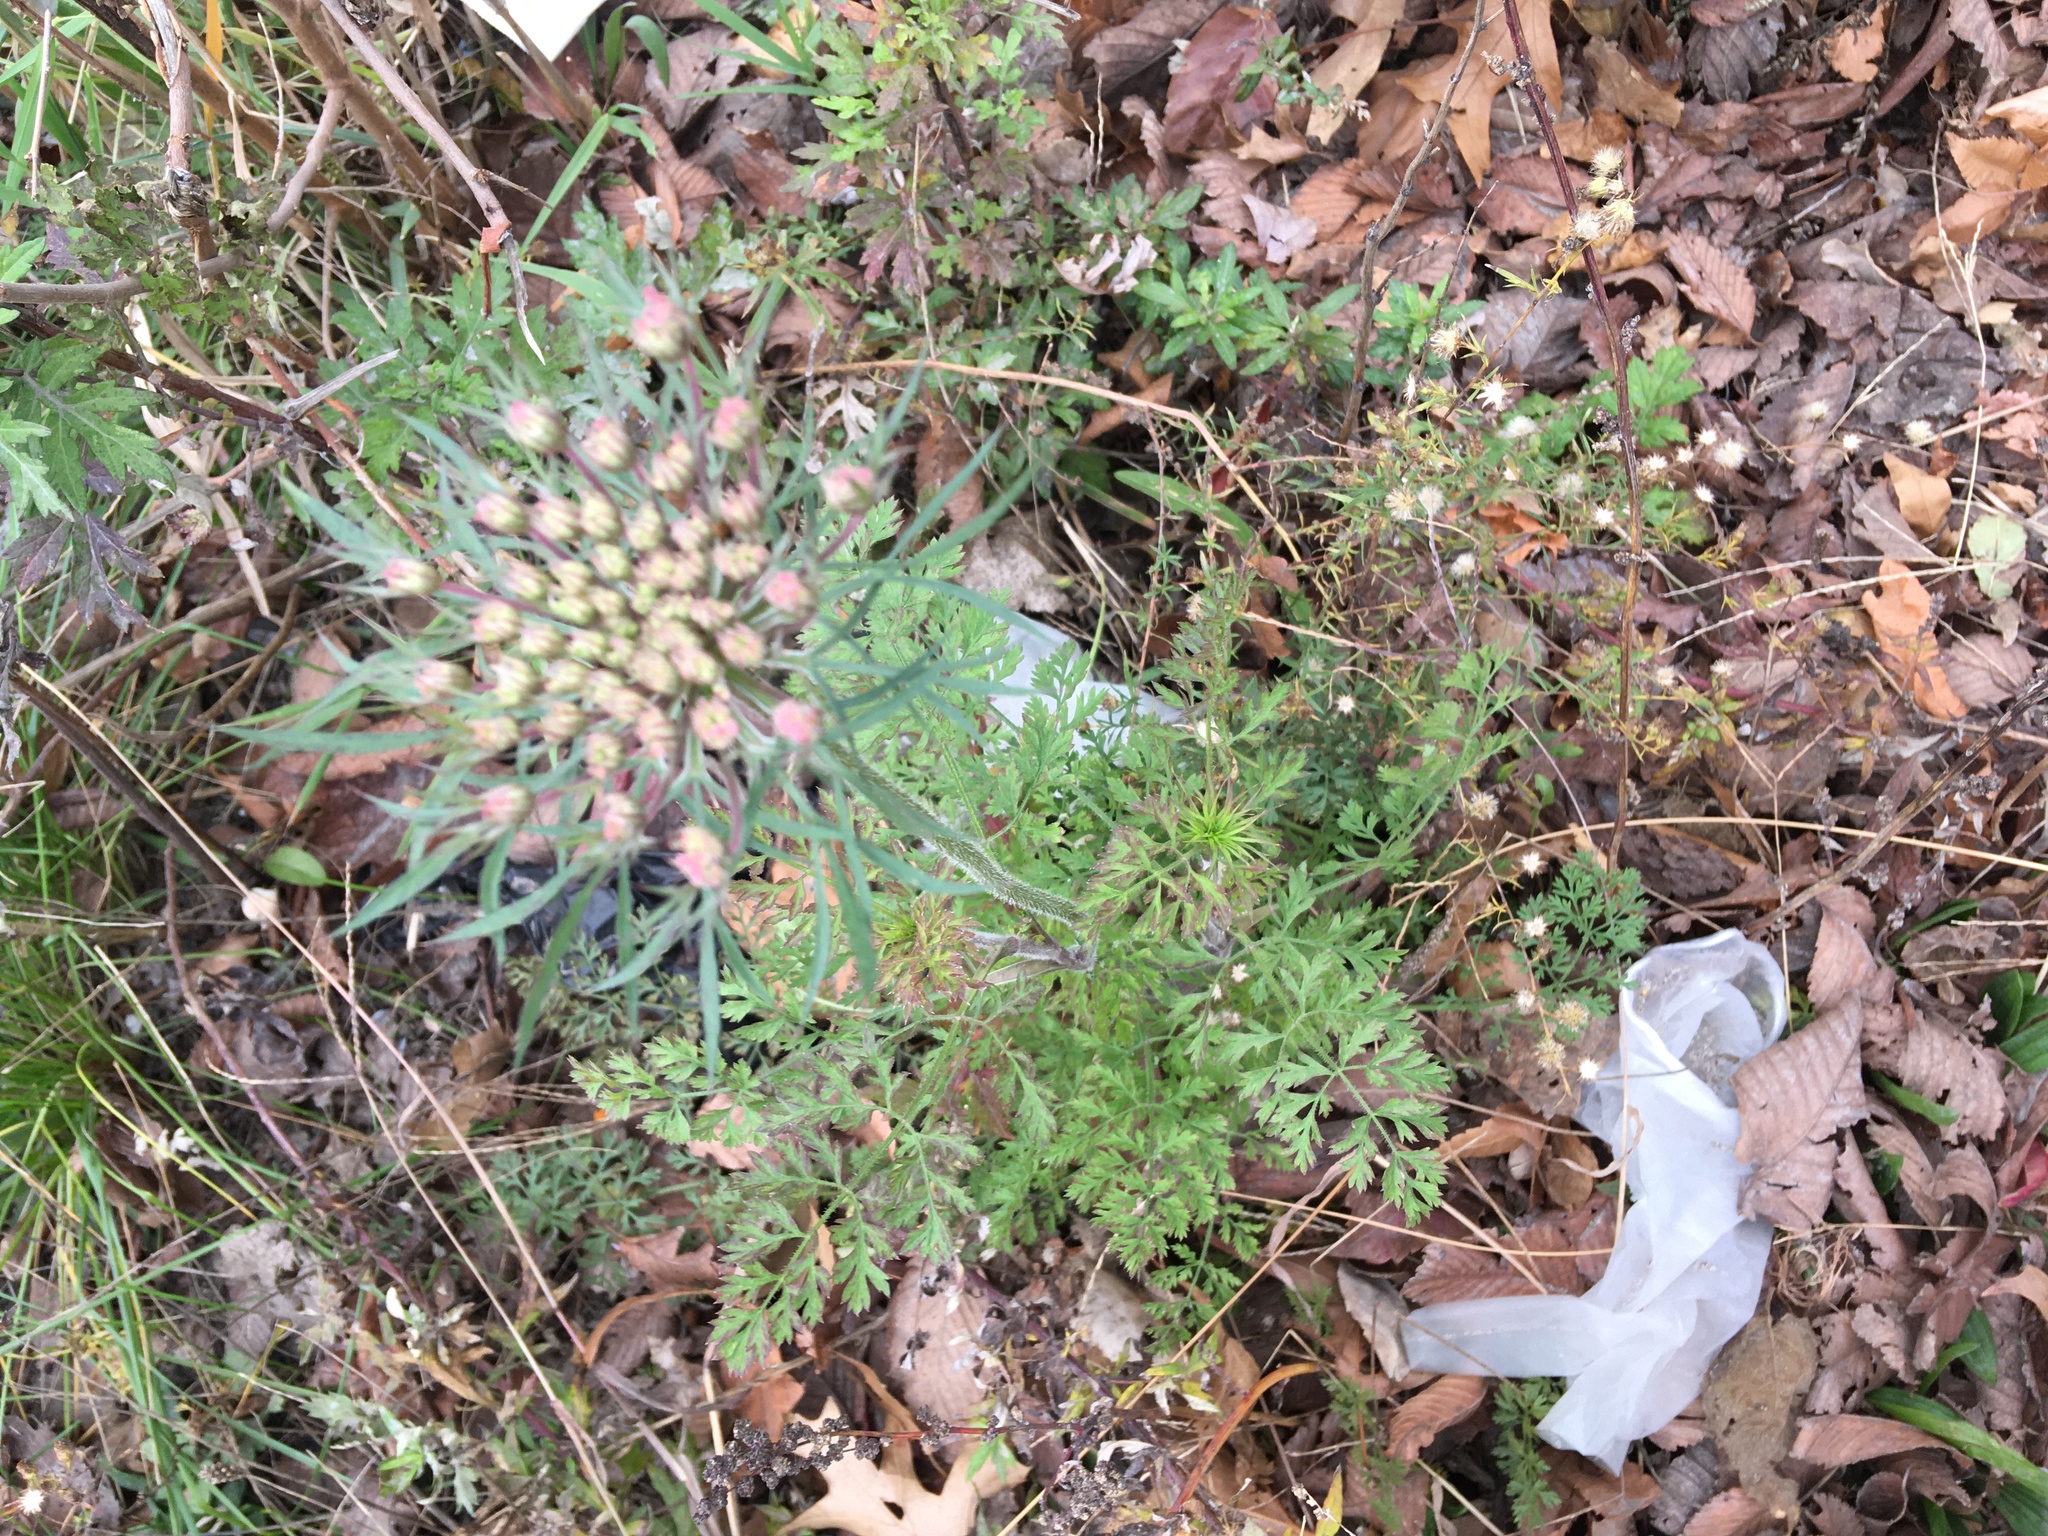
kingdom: Plantae
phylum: Tracheophyta
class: Magnoliopsida
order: Apiales
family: Apiaceae
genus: Daucus
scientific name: Daucus carota
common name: Wild carrot
